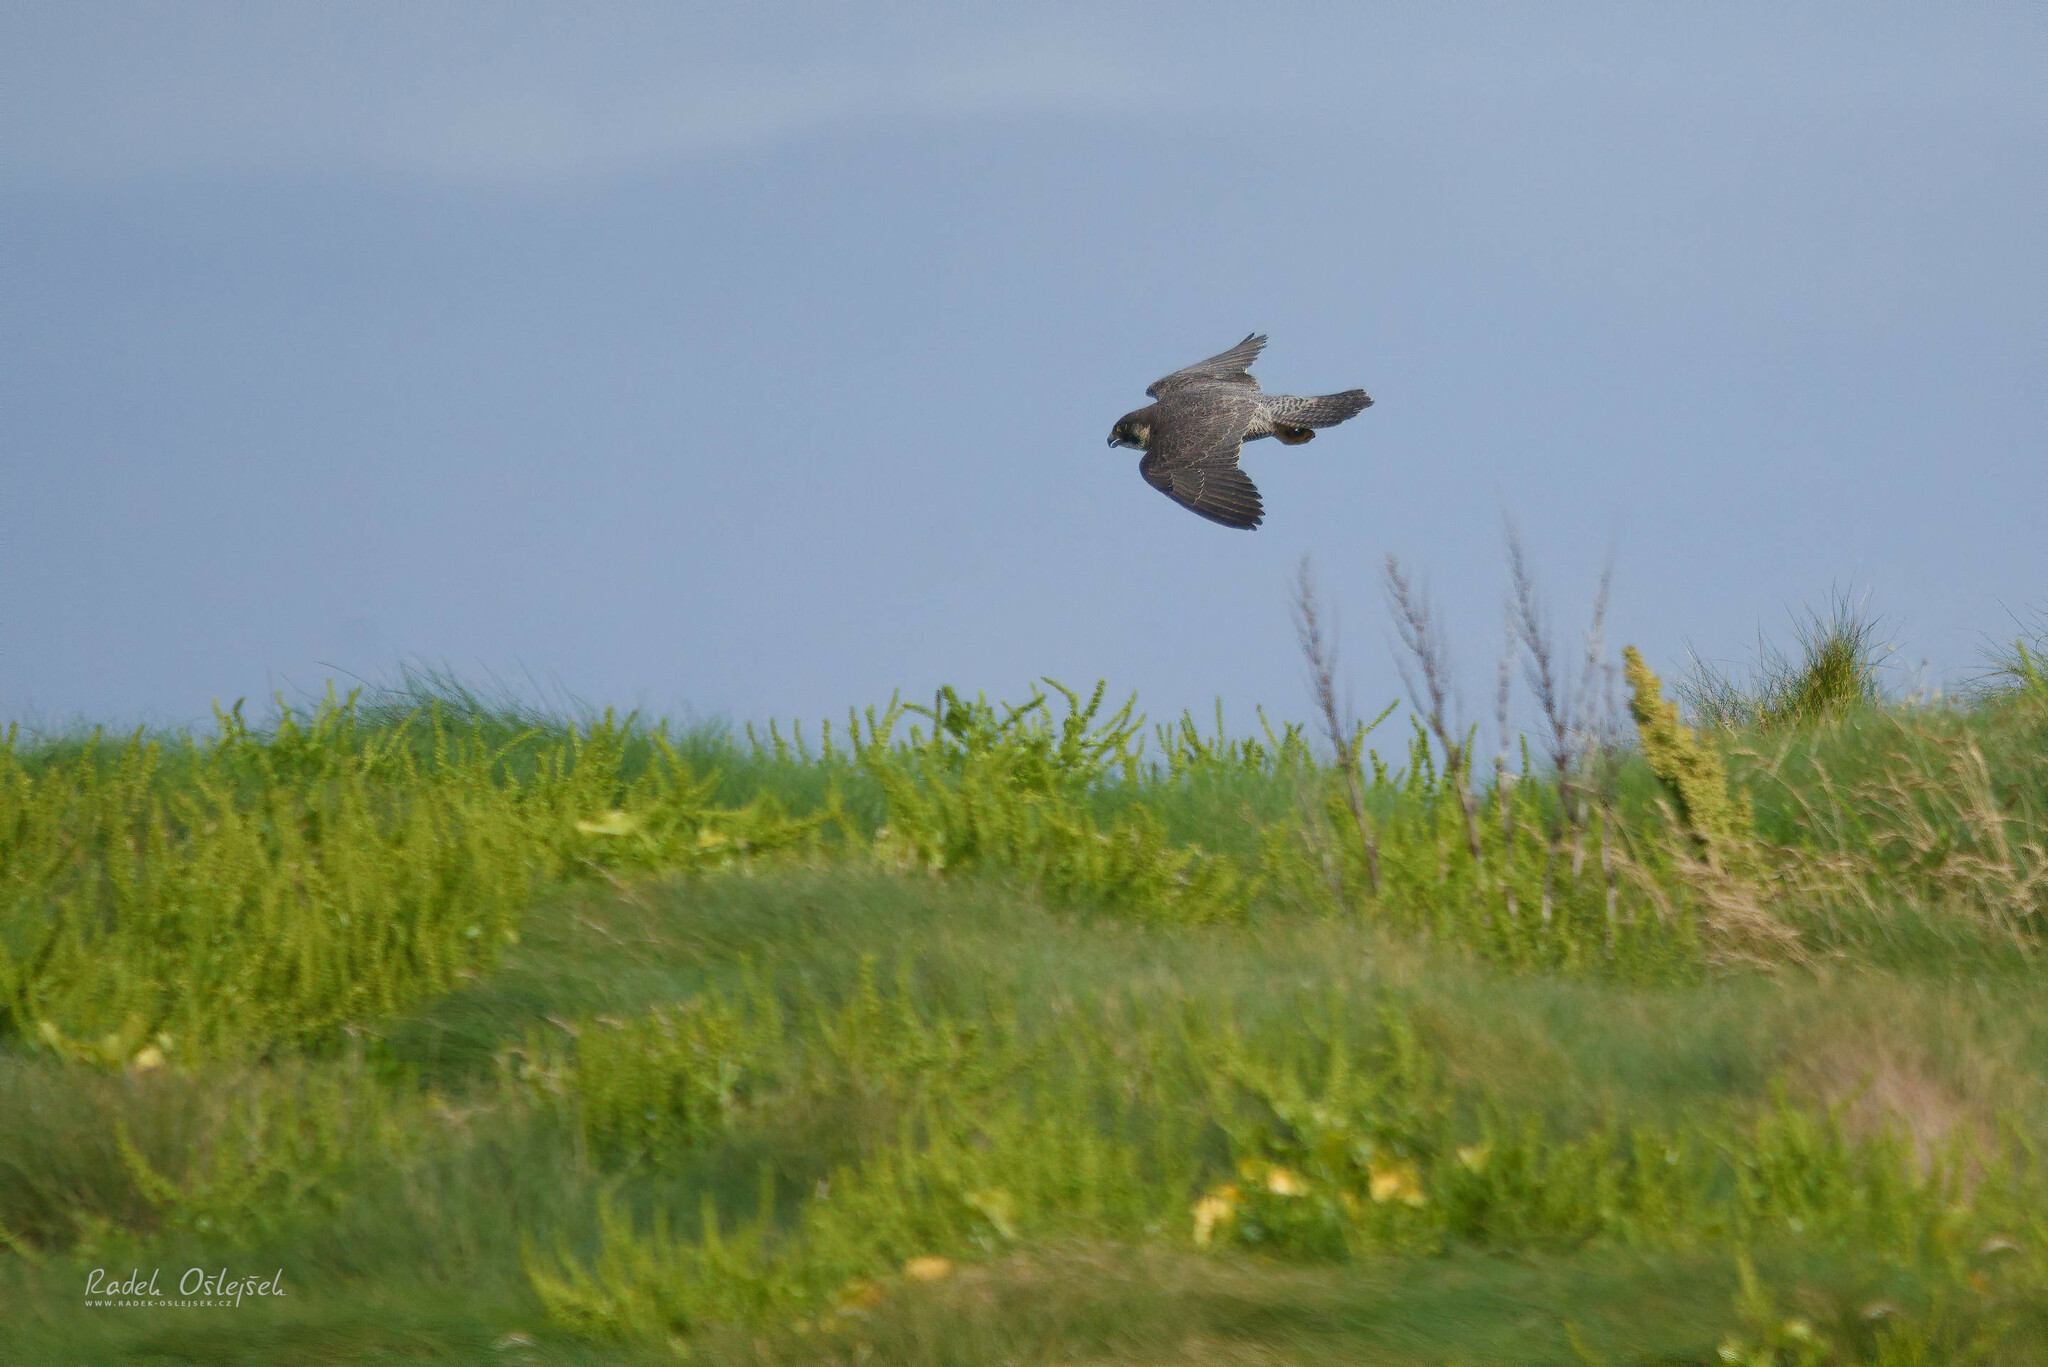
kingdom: Animalia
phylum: Chordata
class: Aves
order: Falconiformes
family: Falconidae
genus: Falco
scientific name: Falco peregrinus
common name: Peregrine falcon
